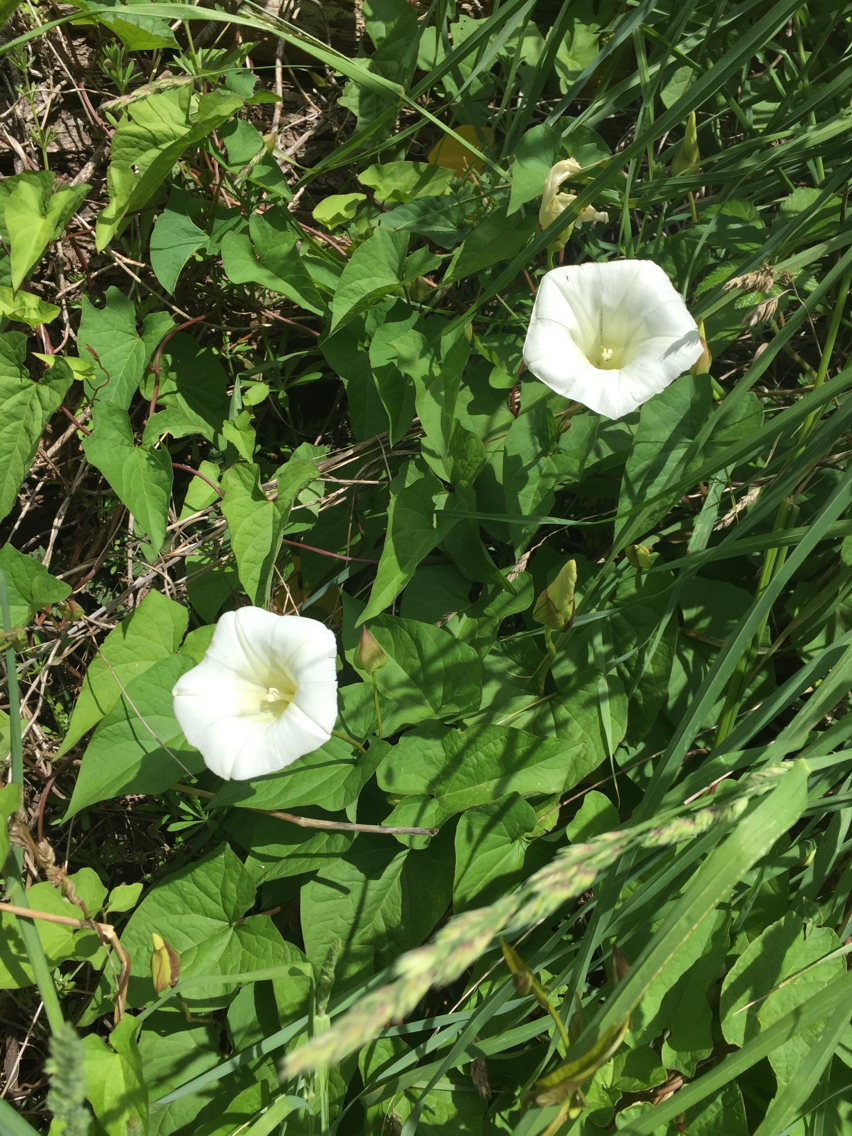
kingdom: Plantae
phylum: Tracheophyta
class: Magnoliopsida
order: Solanales
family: Convolvulaceae
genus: Calystegia
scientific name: Calystegia silvatica
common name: Large bindweed
